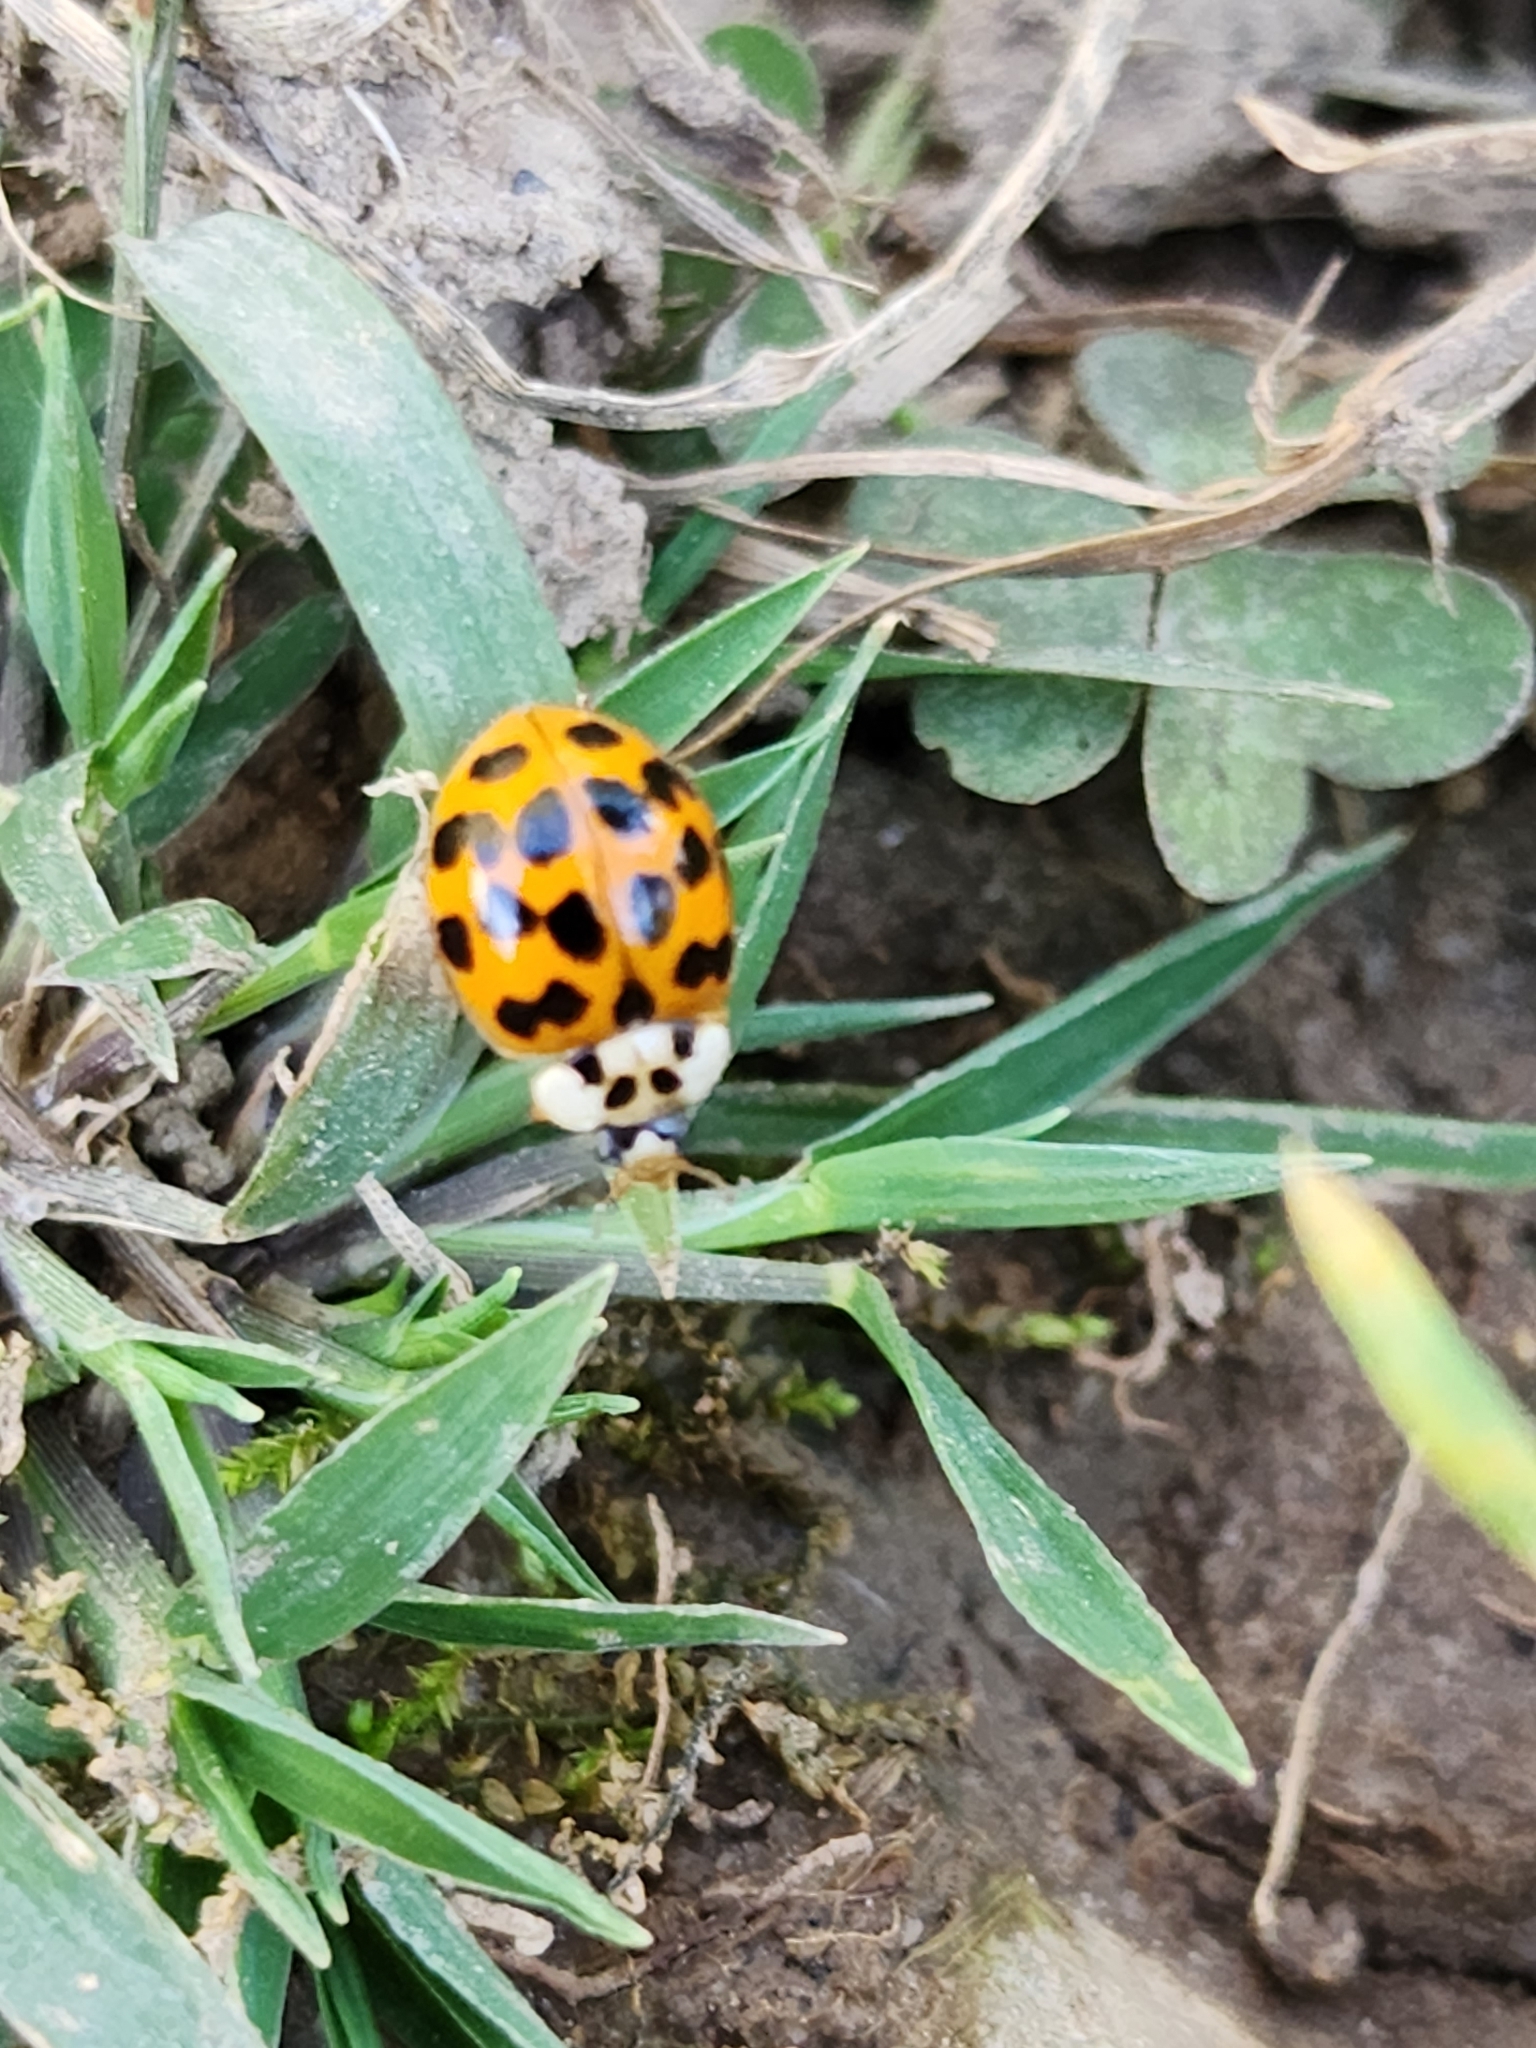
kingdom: Animalia
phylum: Arthropoda
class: Insecta
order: Coleoptera
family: Coccinellidae
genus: Harmonia
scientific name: Harmonia axyridis
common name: Harlequin ladybird
